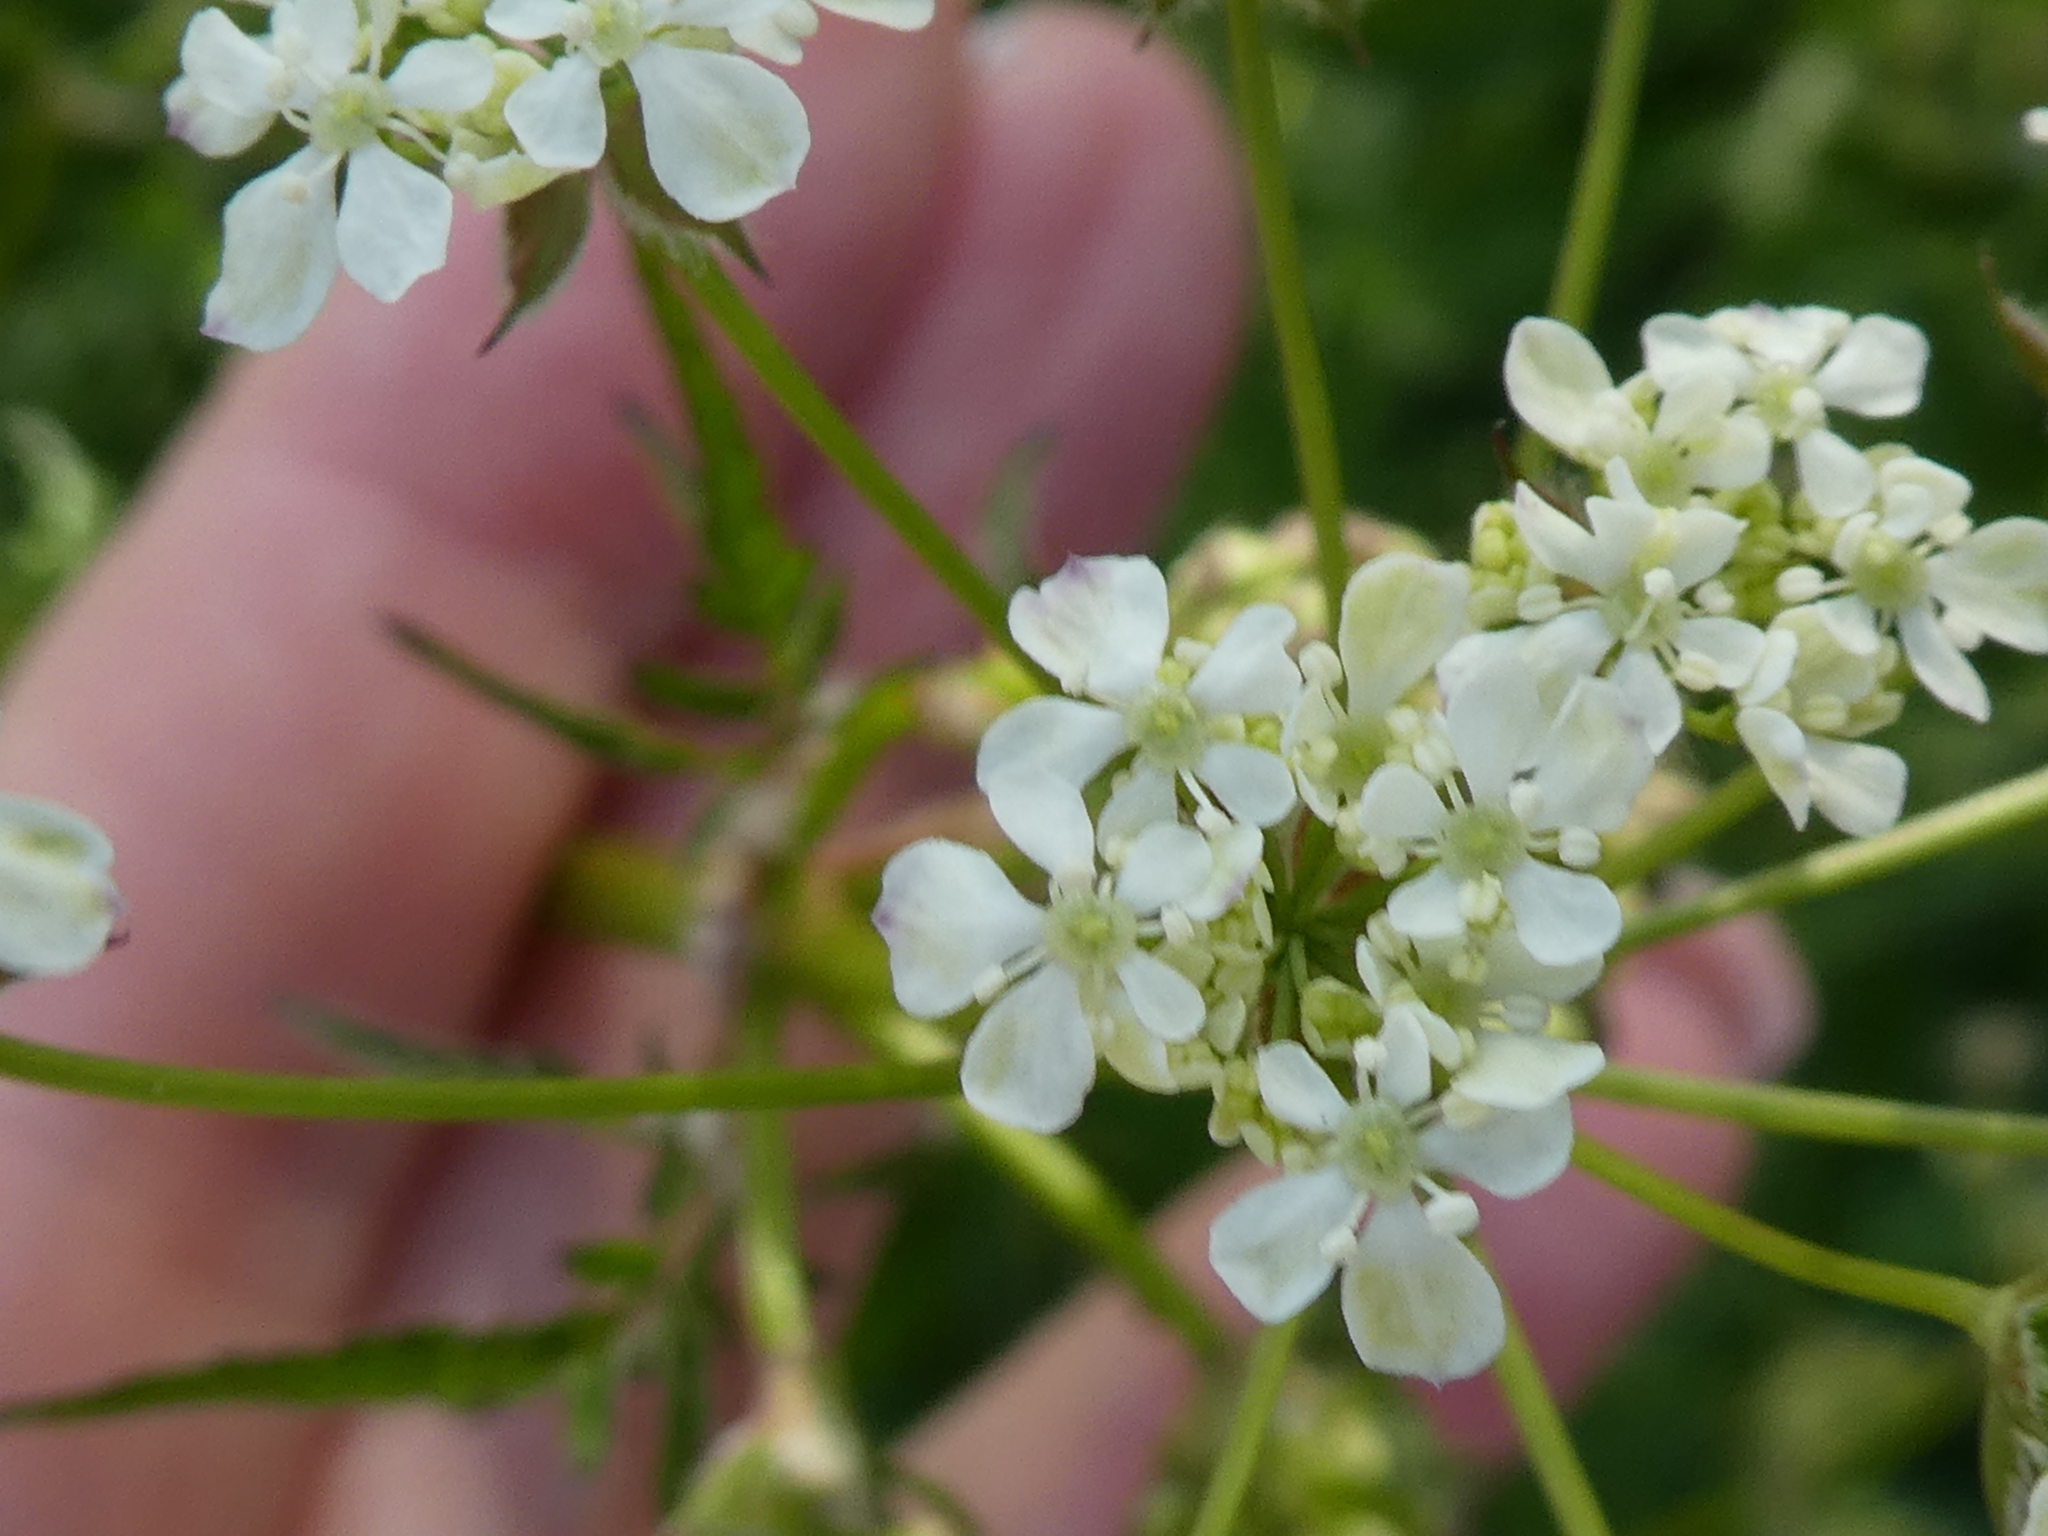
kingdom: Plantae
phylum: Tracheophyta
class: Magnoliopsida
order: Apiales
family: Apiaceae
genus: Anthriscus
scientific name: Anthriscus sylvestris
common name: Cow parsley
